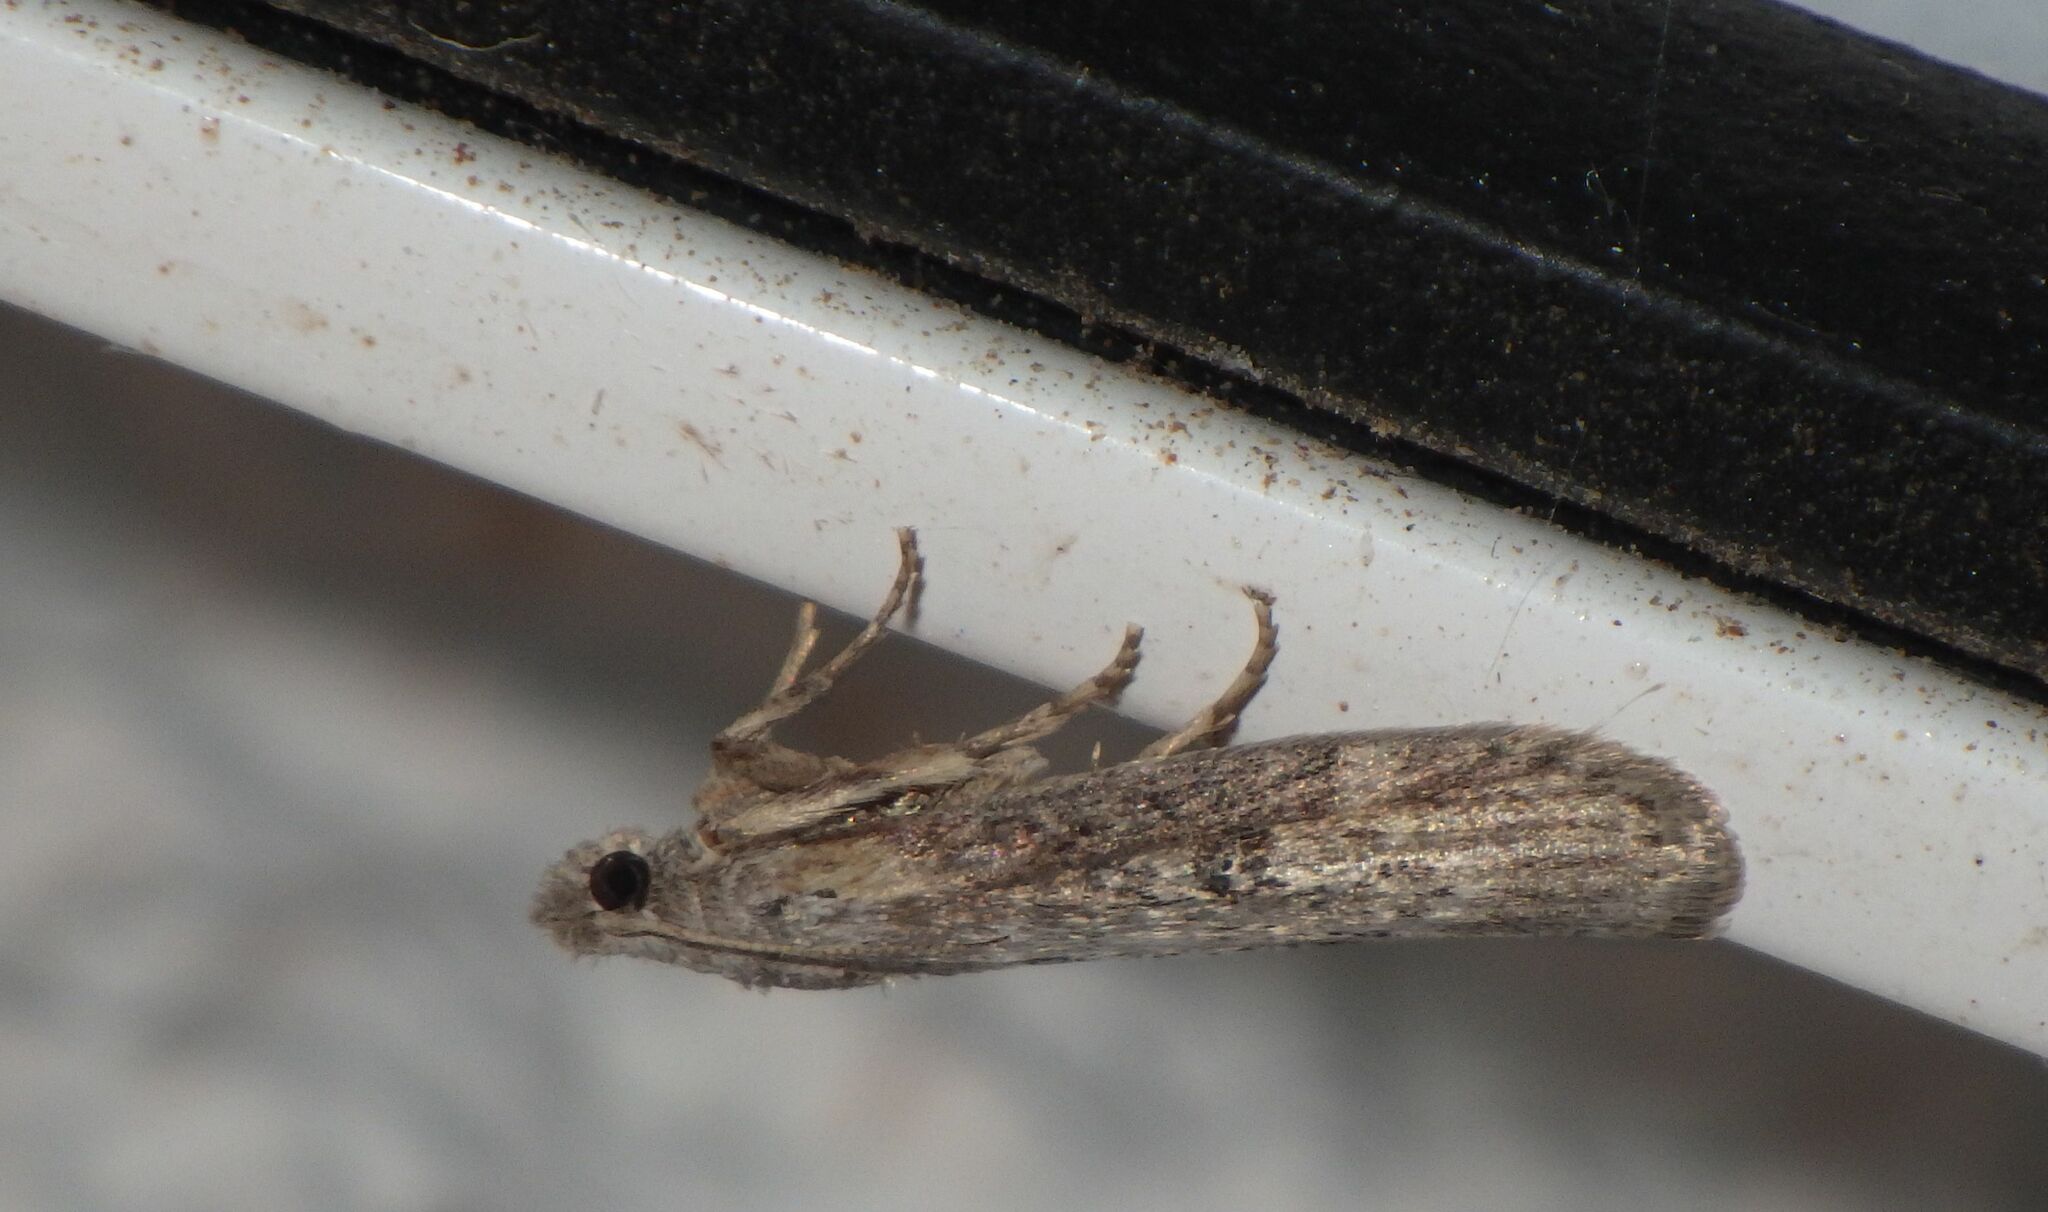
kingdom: Animalia
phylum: Arthropoda
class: Insecta
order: Lepidoptera
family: Pyralidae
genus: Lamoria
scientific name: Lamoria anella
